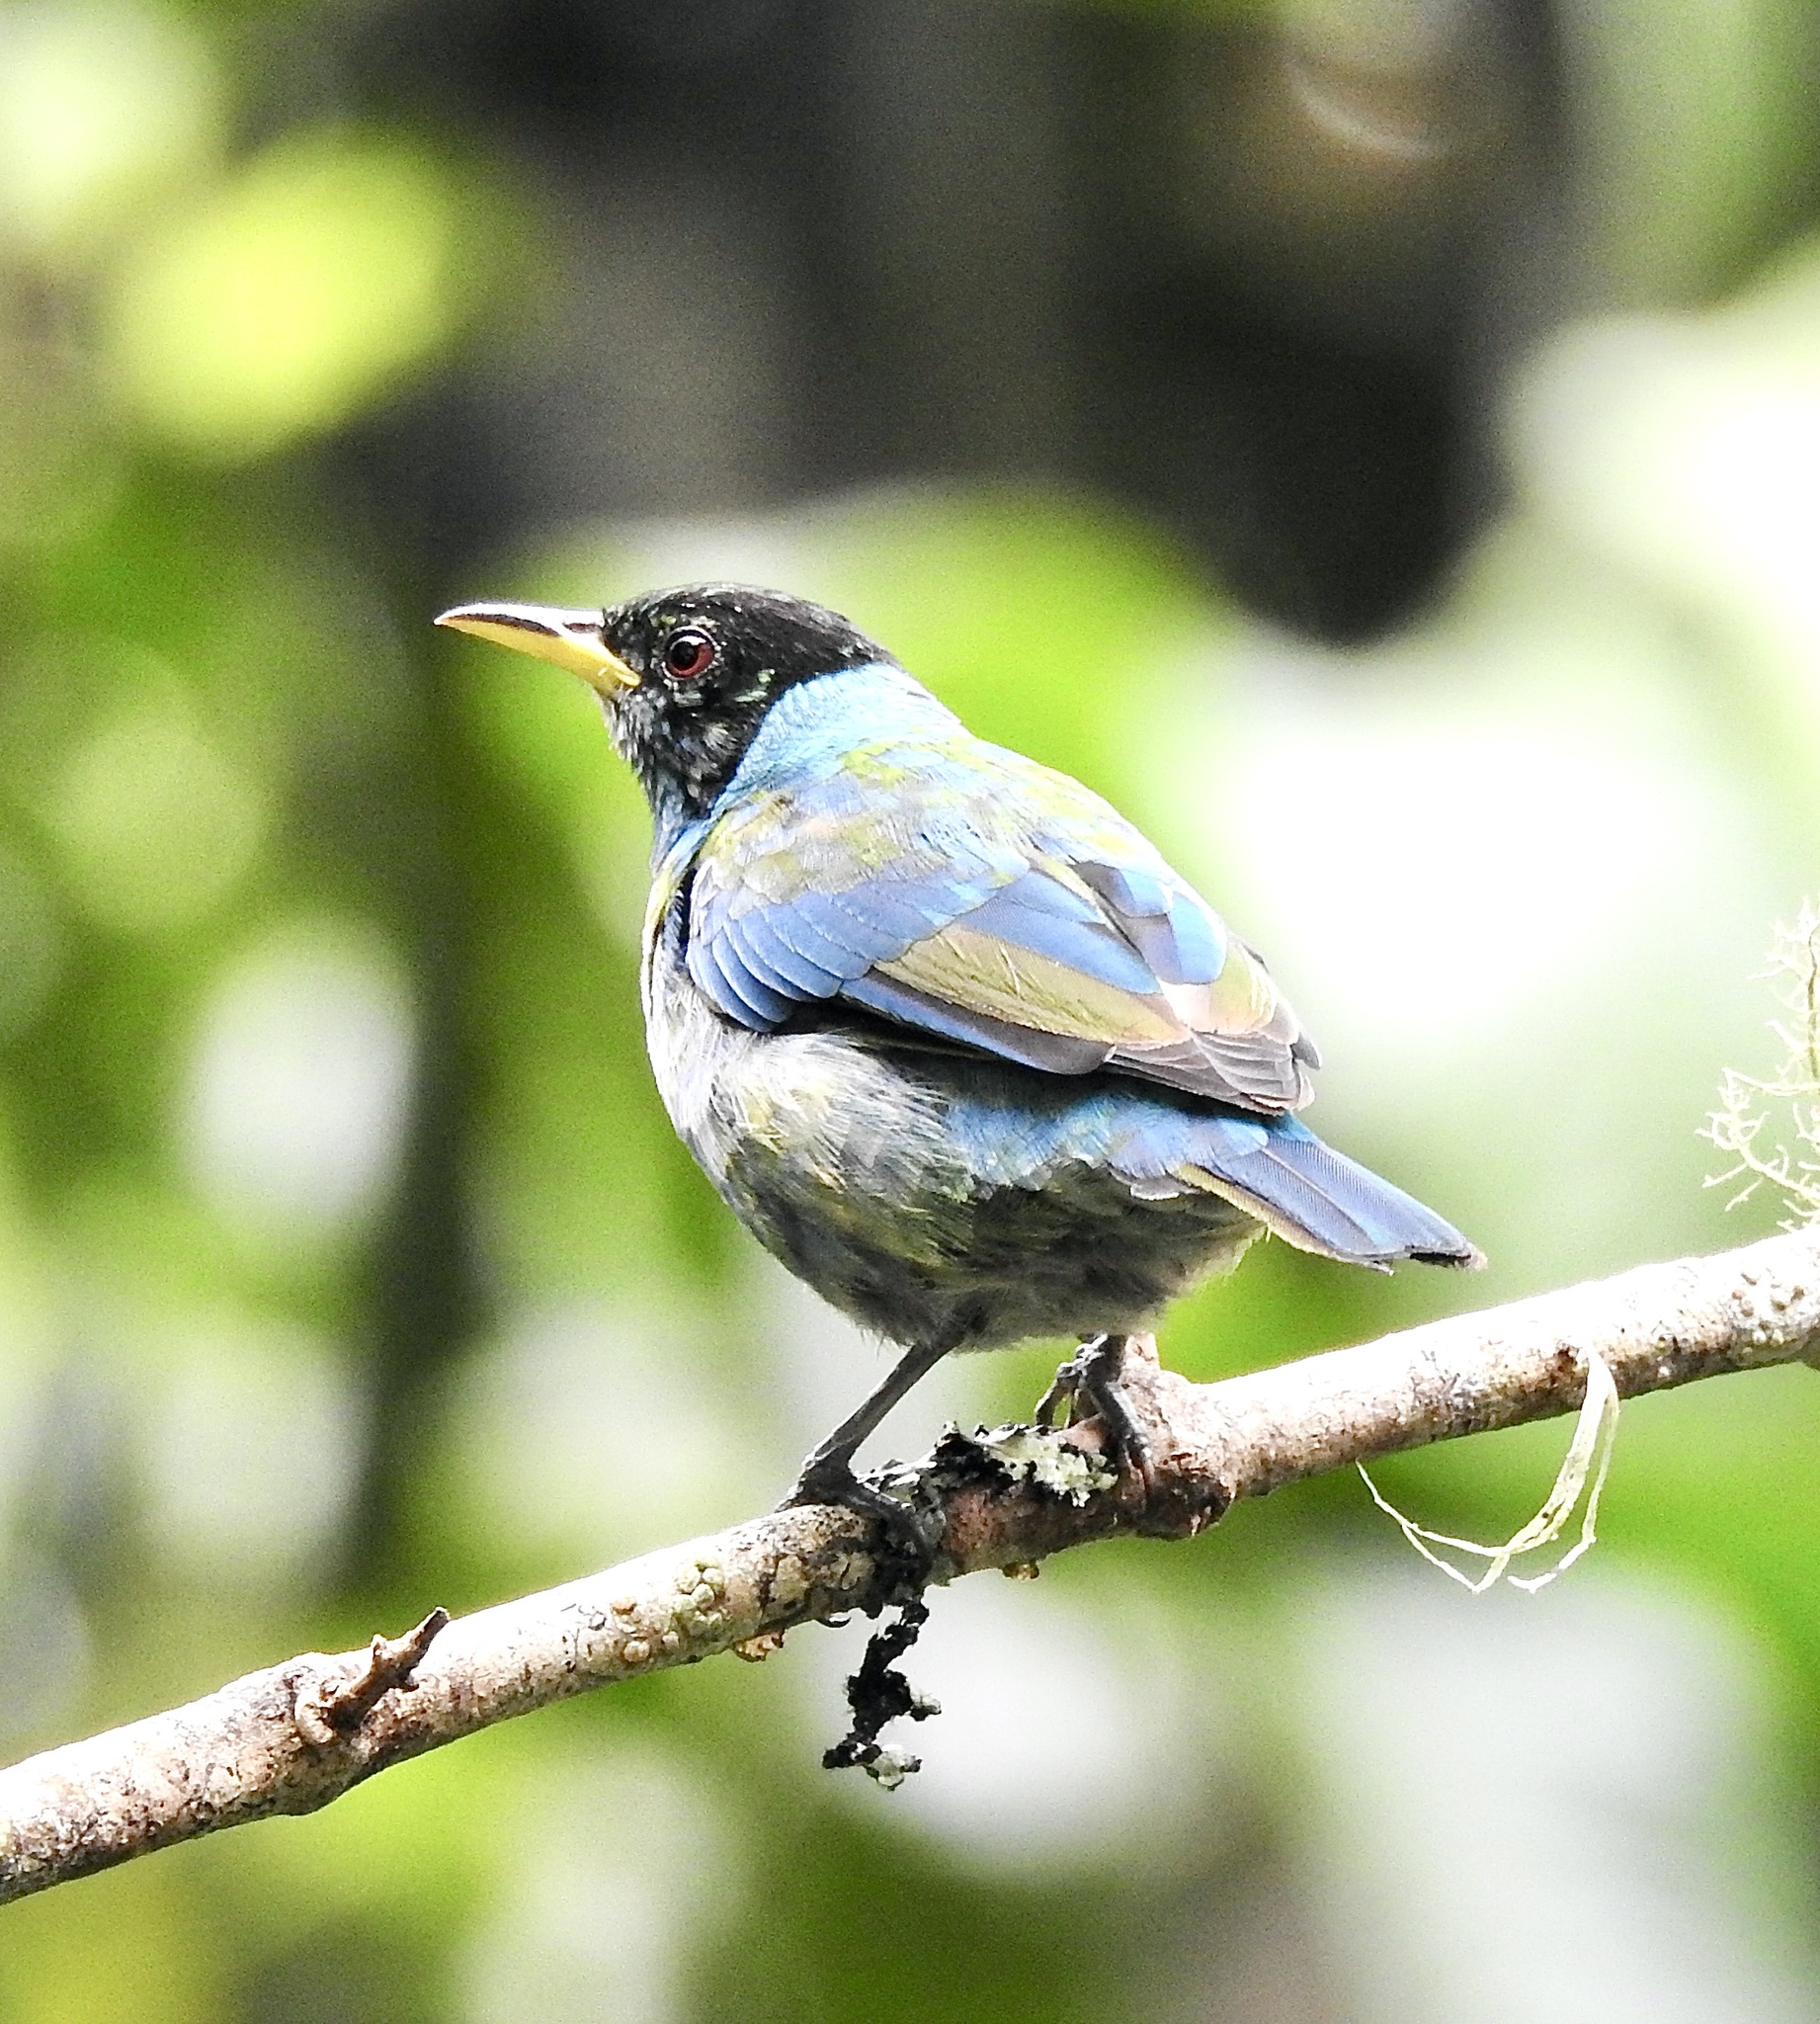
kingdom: Animalia
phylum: Chordata
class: Aves
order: Passeriformes
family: Thraupidae
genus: Chlorophanes
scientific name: Chlorophanes spiza
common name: Green honeycreeper
